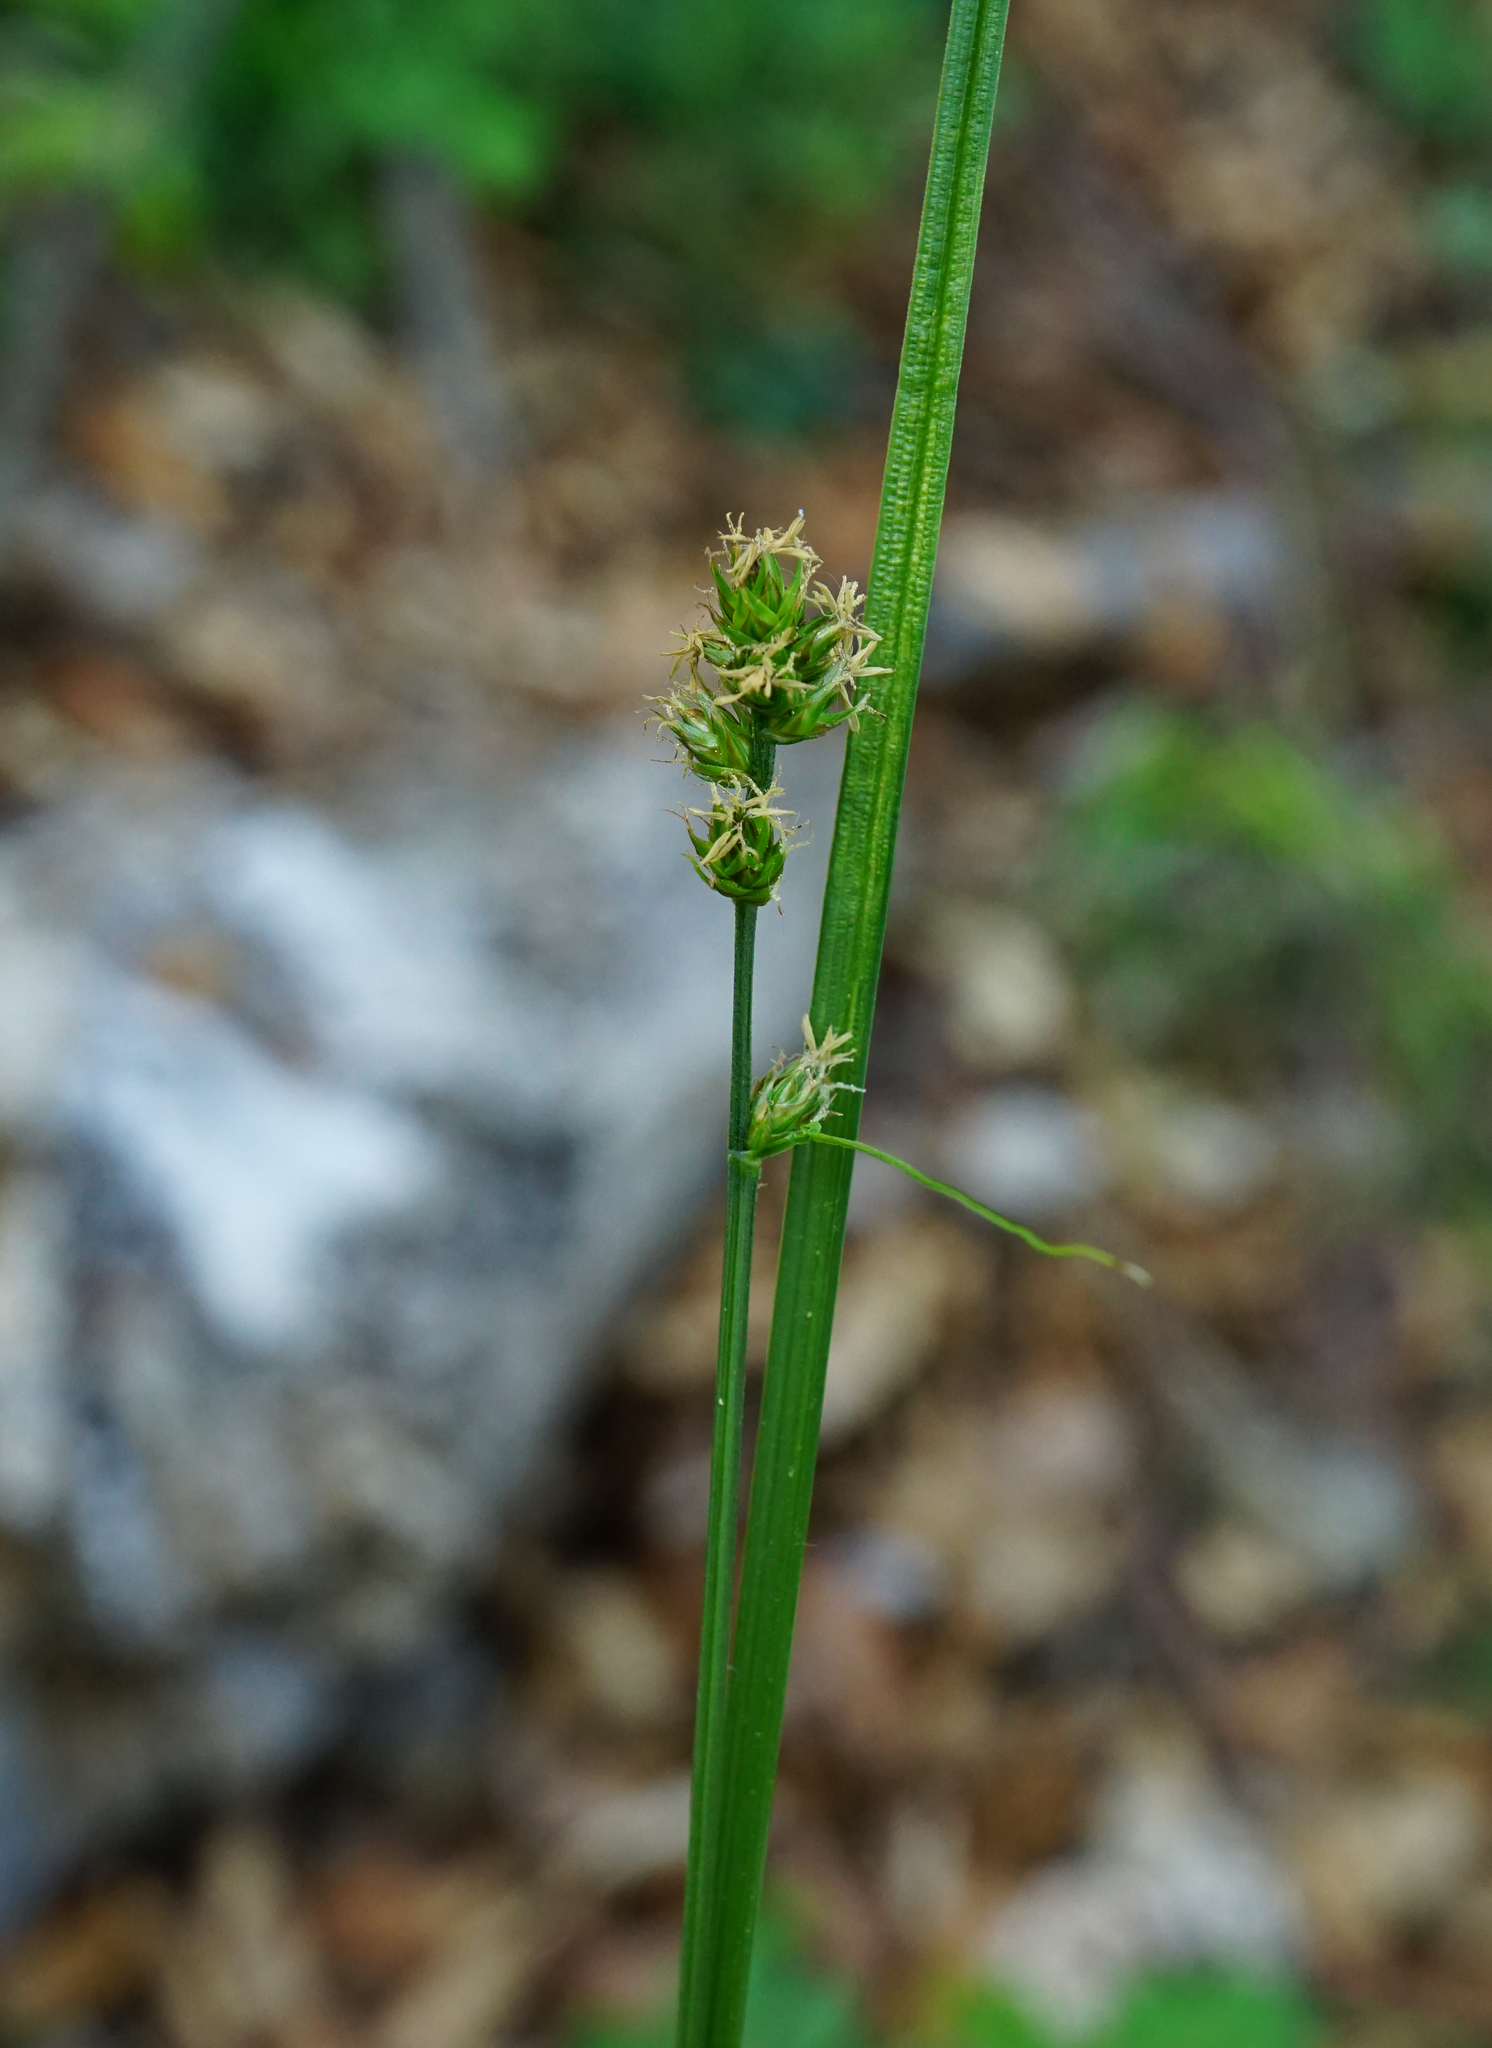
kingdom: Plantae
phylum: Tracheophyta
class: Liliopsida
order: Poales
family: Cyperaceae
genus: Carex
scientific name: Carex muricata
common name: Rough sedge
